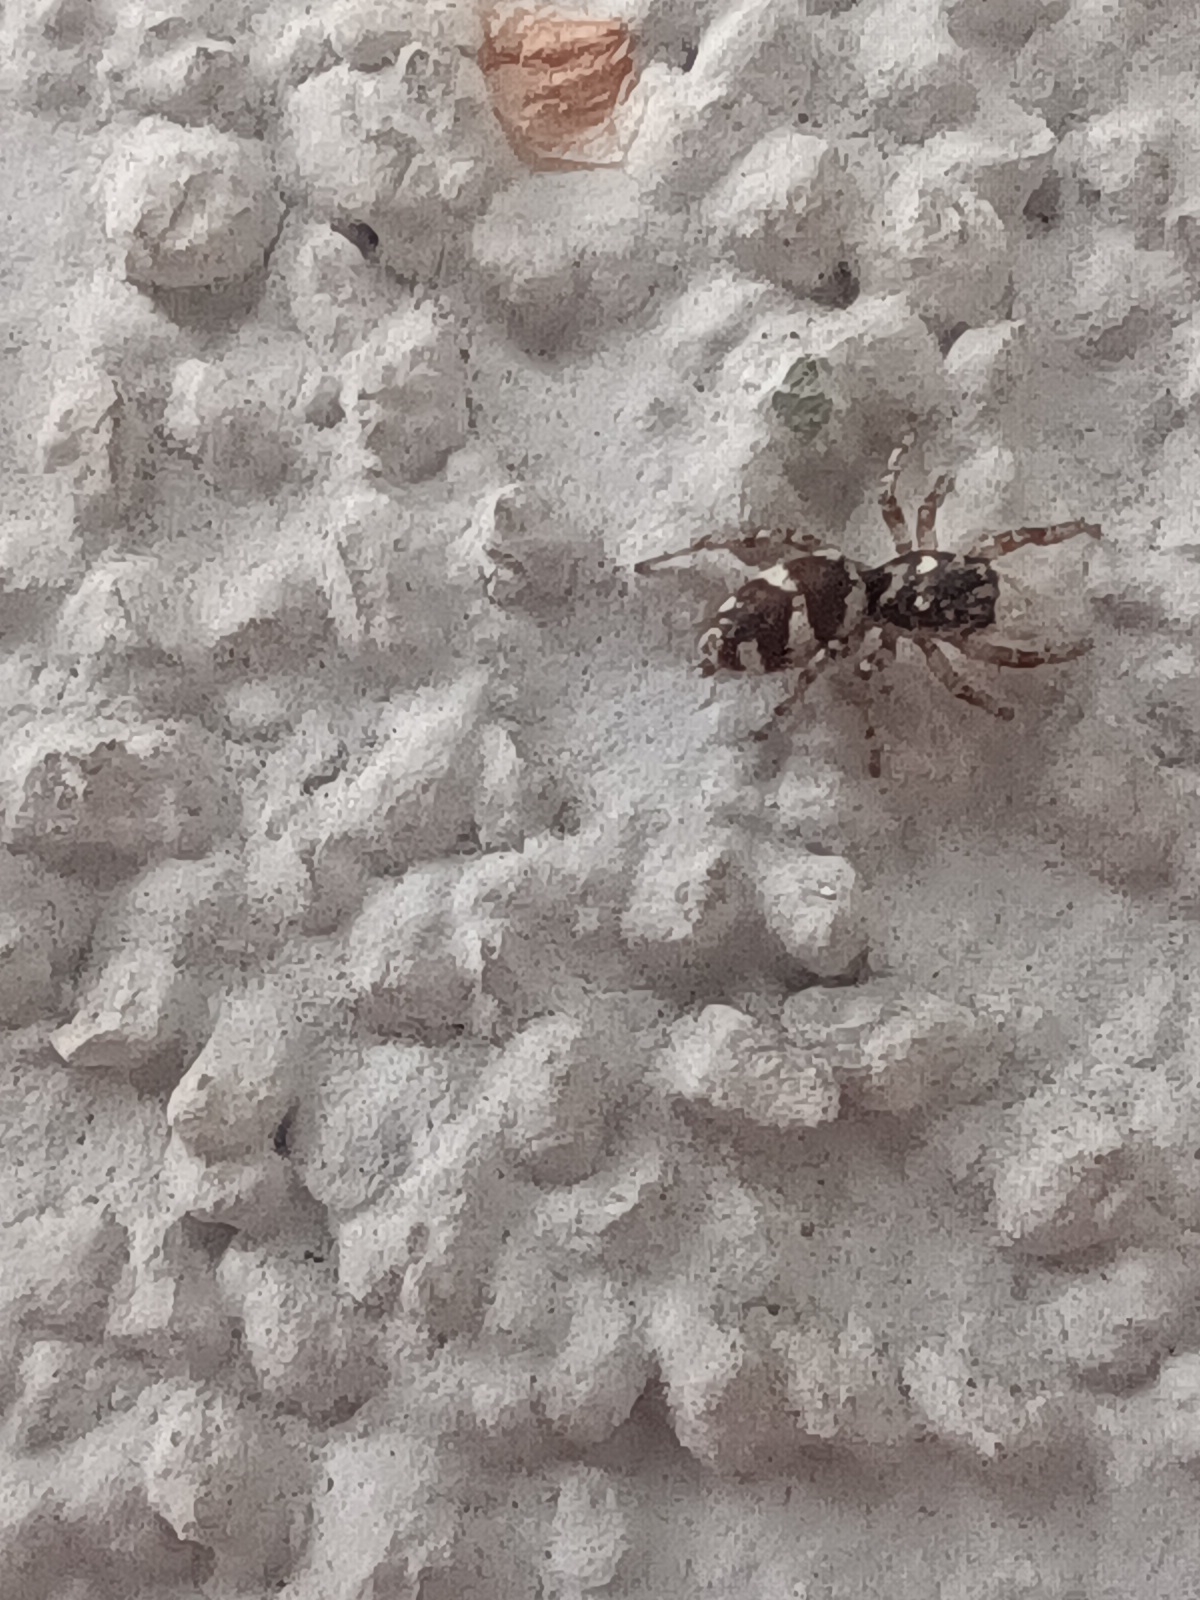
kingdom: Animalia
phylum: Arthropoda
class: Arachnida
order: Araneae
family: Salticidae
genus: Salticus
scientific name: Salticus scenicus
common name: Zebra jumper
